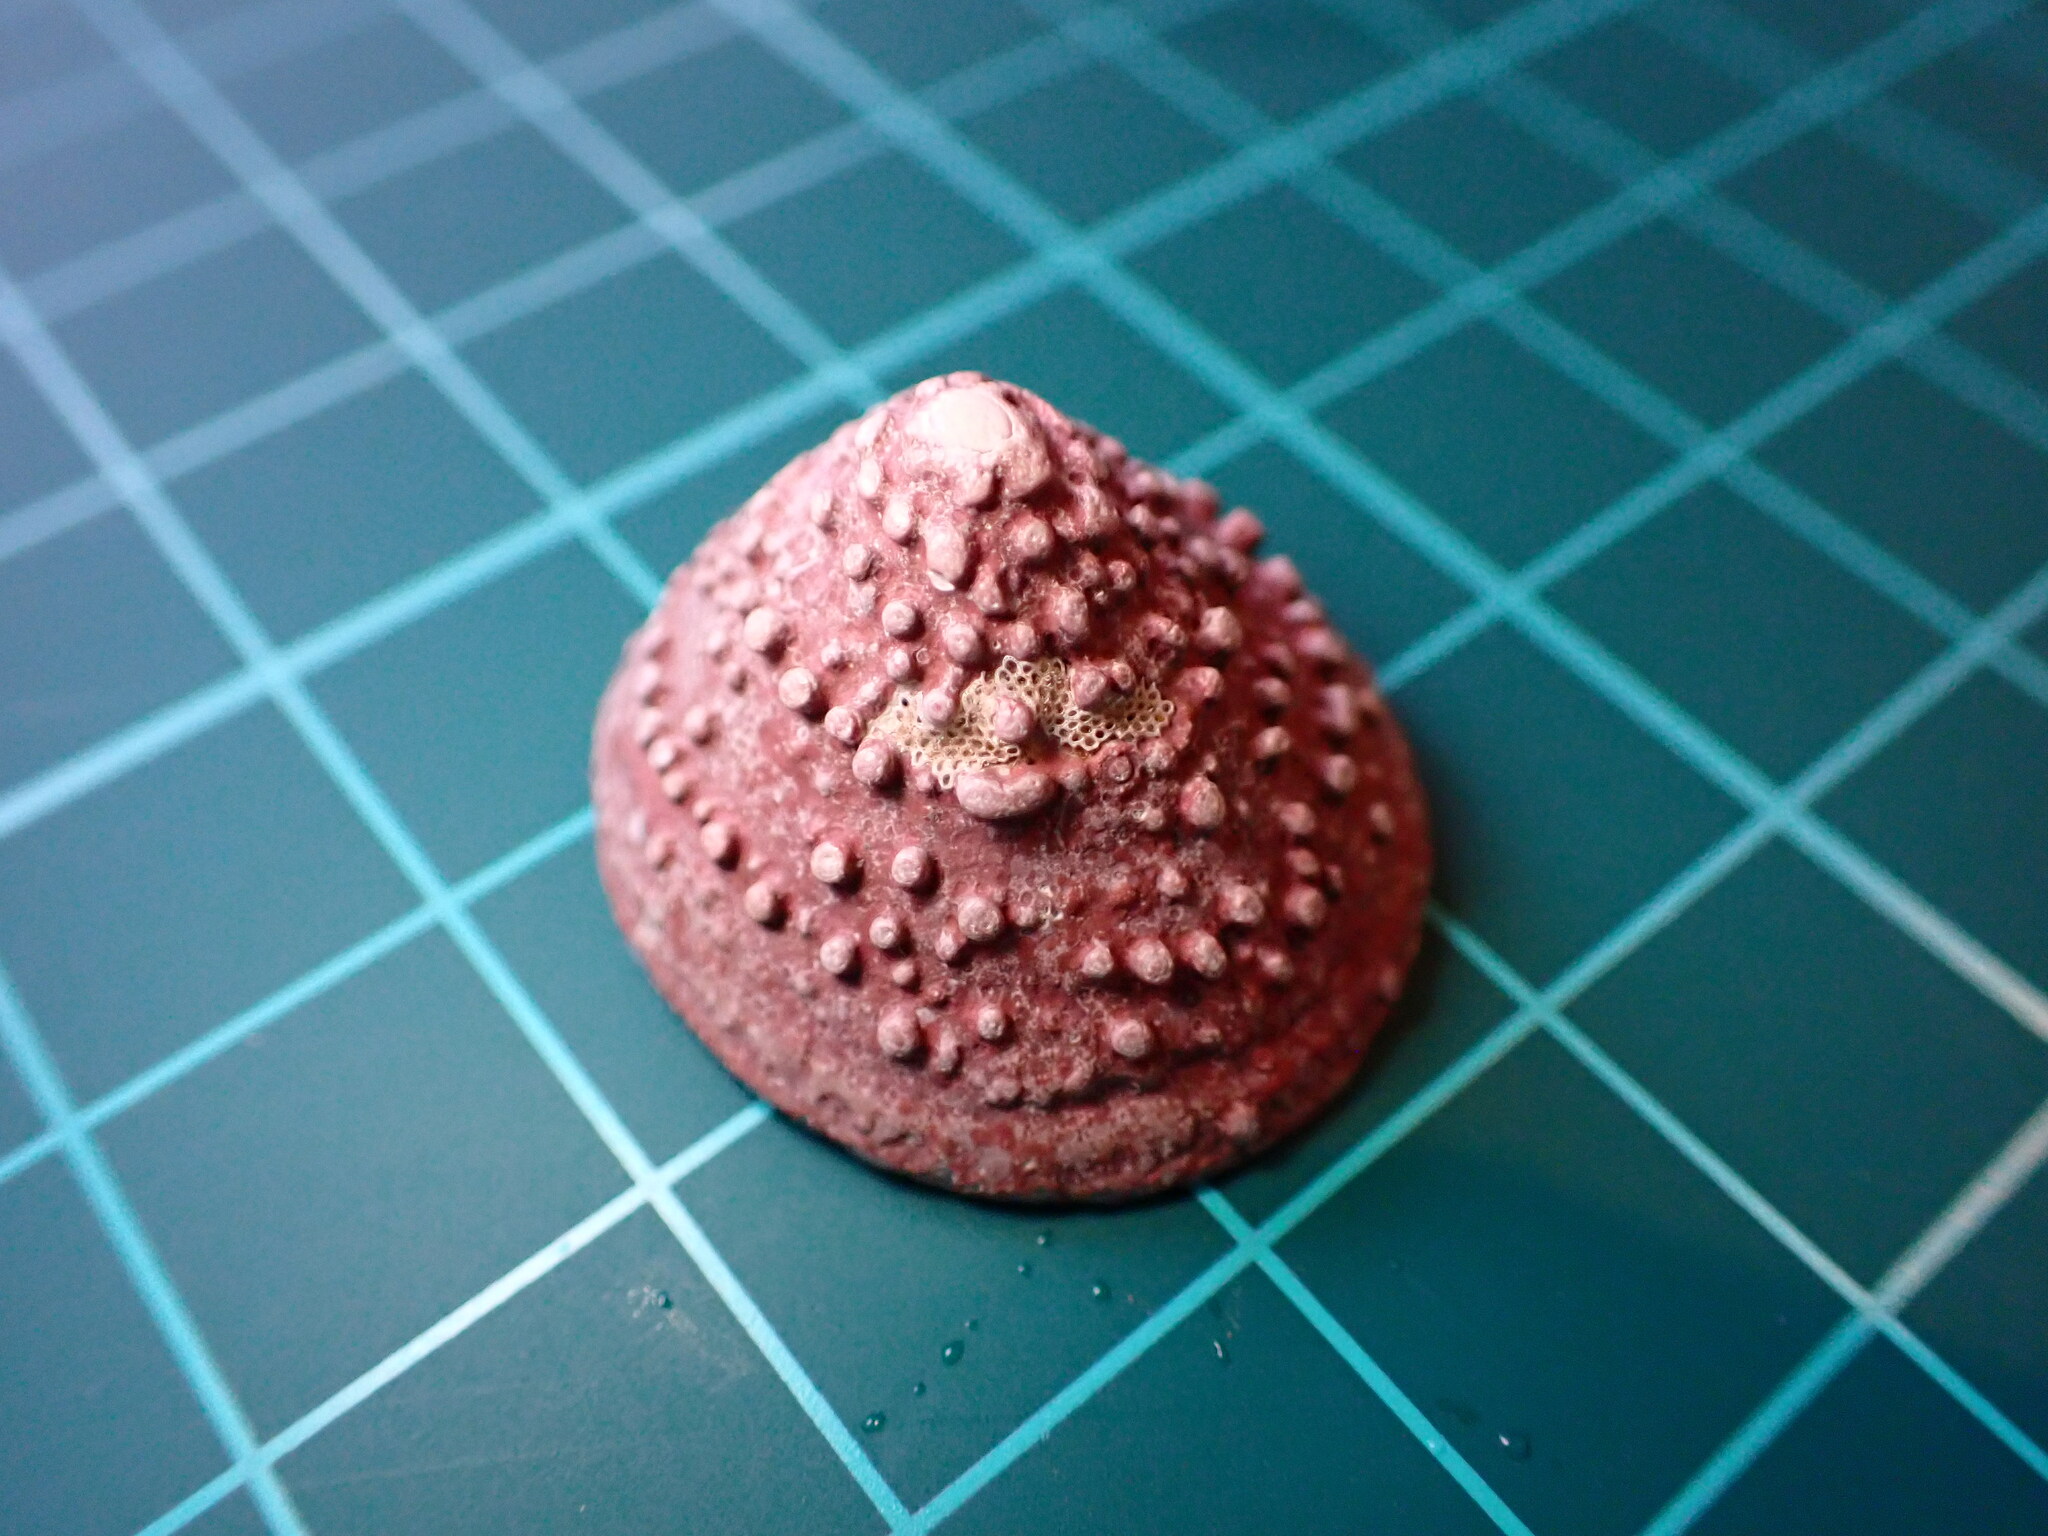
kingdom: Animalia
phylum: Mollusca
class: Gastropoda
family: Acmaeidae
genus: Acmaea
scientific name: Acmaea mitra
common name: Pacific white cap limpet
